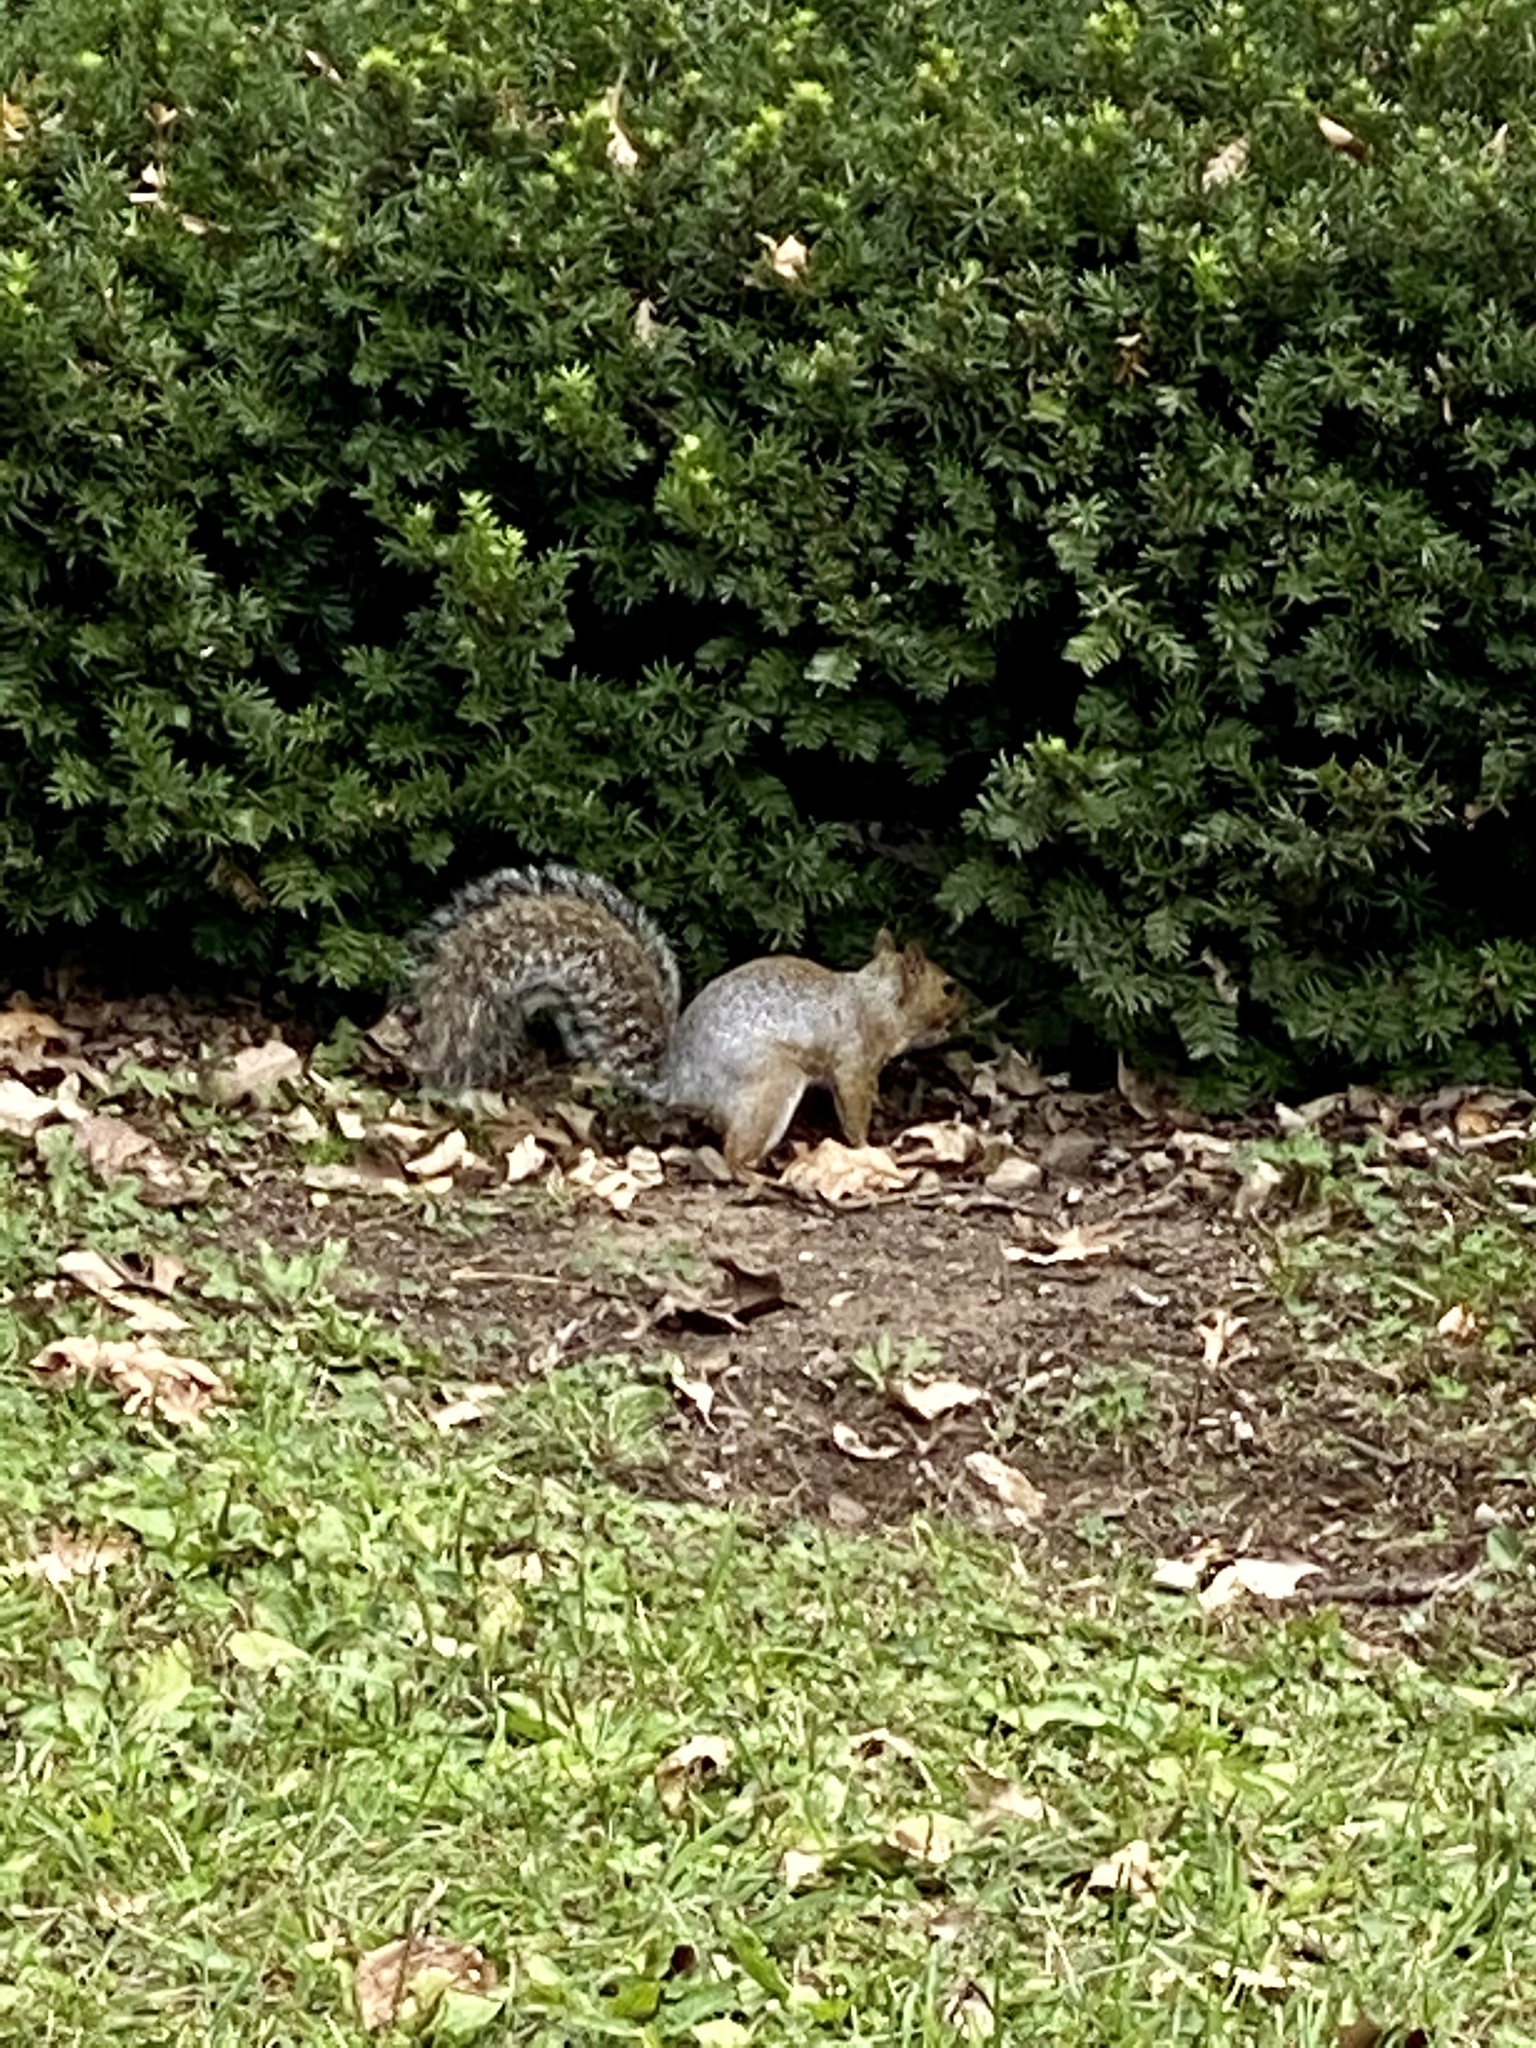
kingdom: Animalia
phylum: Chordata
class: Mammalia
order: Rodentia
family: Sciuridae
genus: Sciurus
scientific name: Sciurus carolinensis
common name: Eastern gray squirrel
